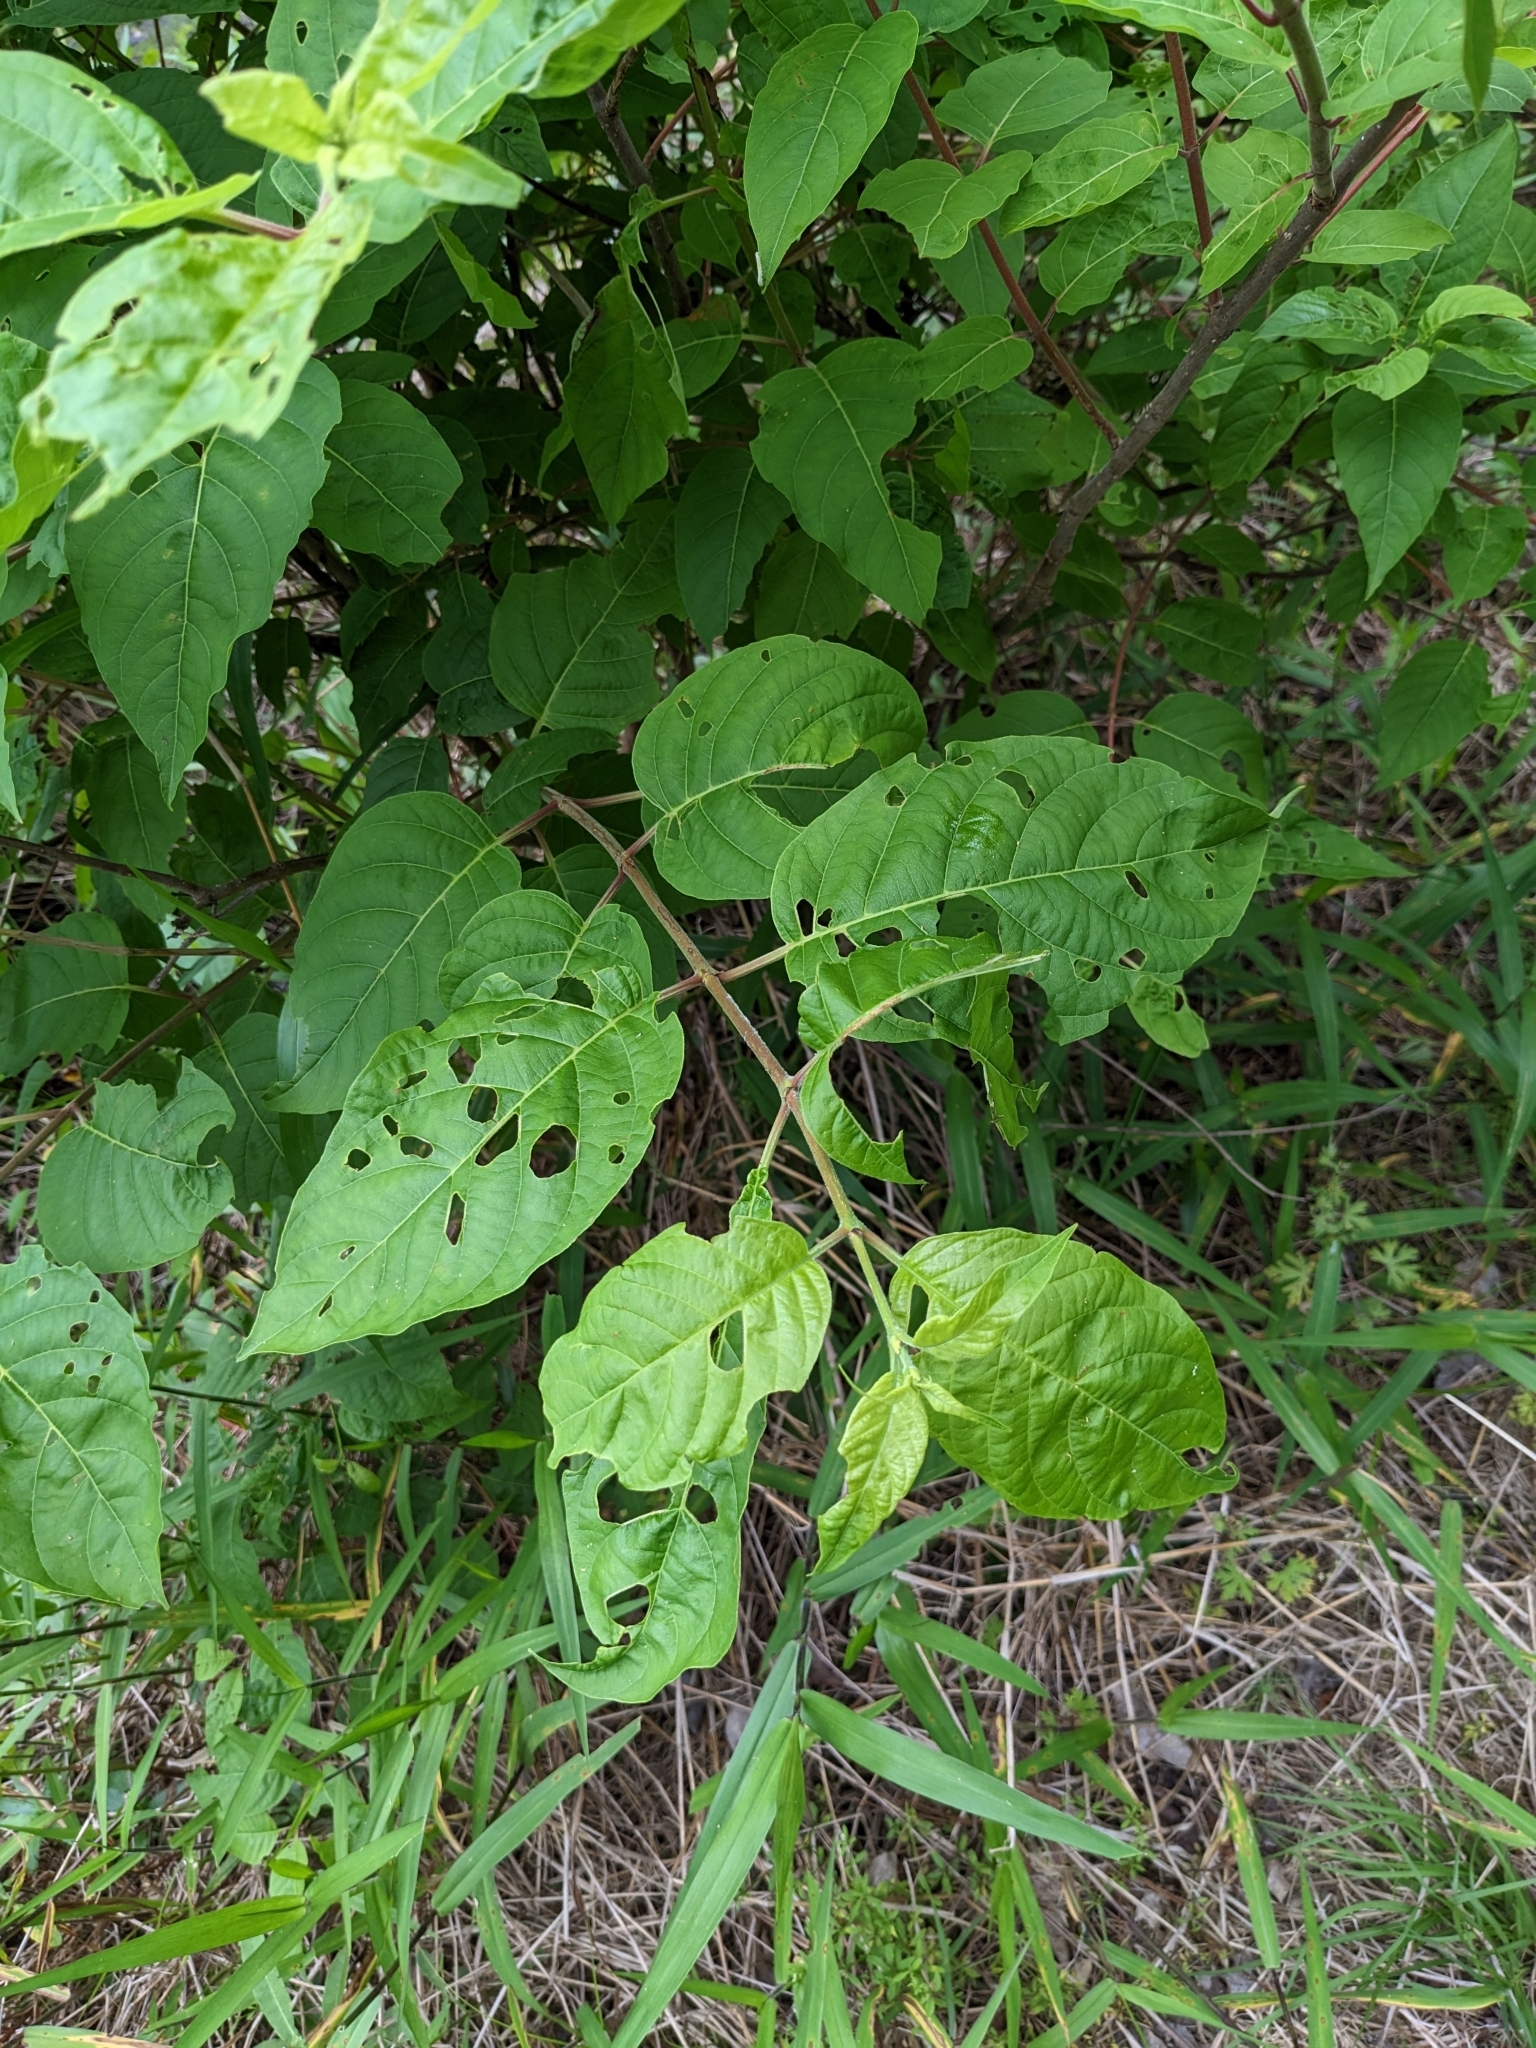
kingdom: Plantae
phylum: Tracheophyta
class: Magnoliopsida
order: Gentianales
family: Rubiaceae
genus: Cephalanthus
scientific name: Cephalanthus occidentalis
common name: Button-willow
